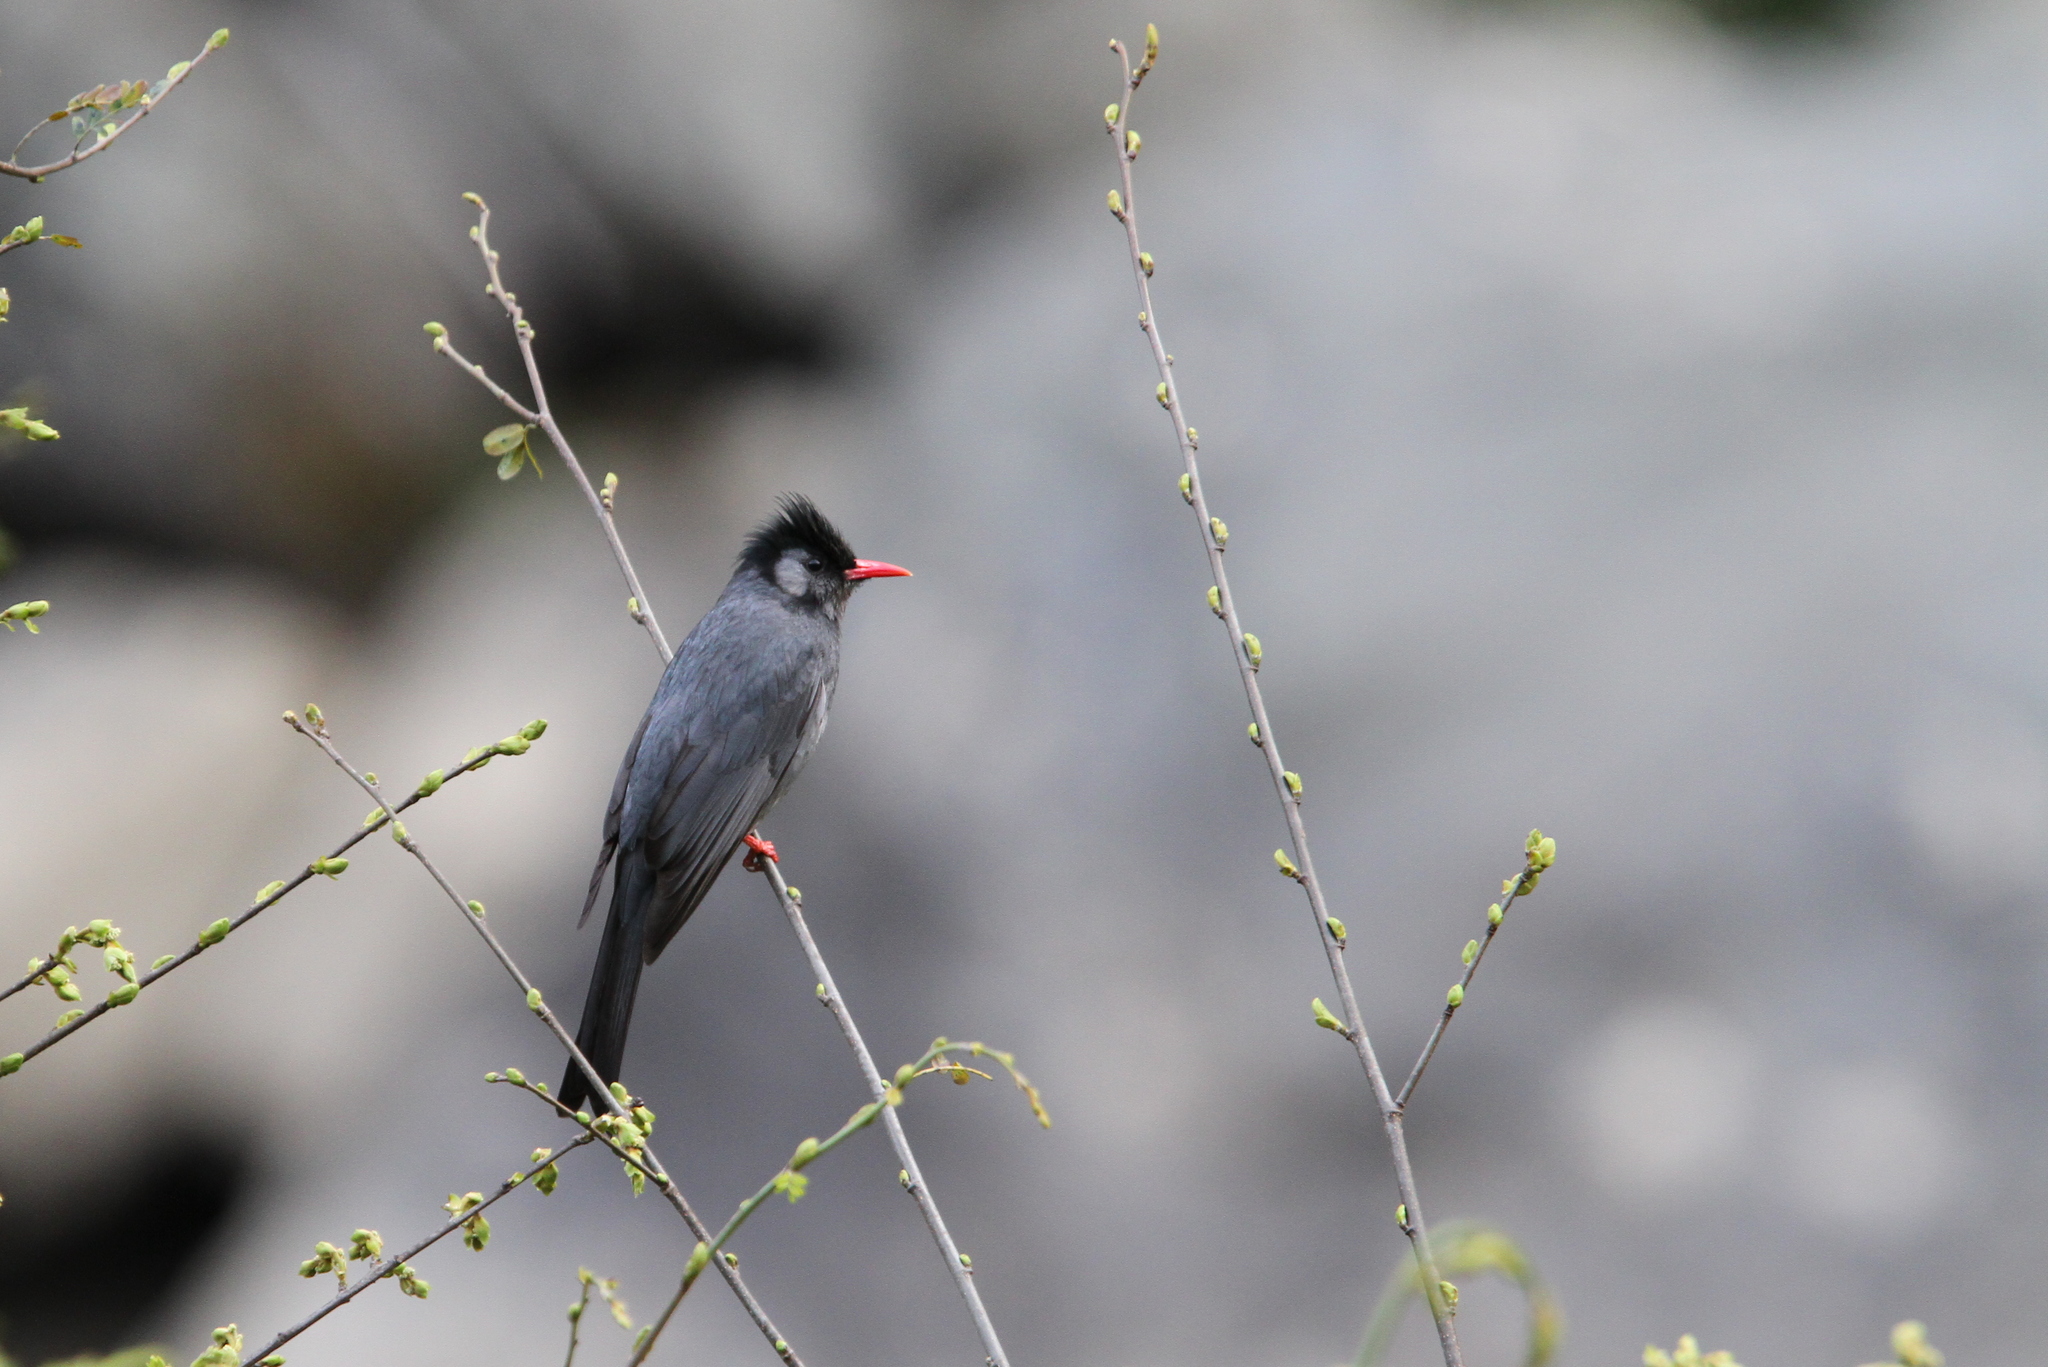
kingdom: Animalia
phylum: Chordata
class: Aves
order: Passeriformes
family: Pycnonotidae
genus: Hypsipetes
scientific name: Hypsipetes leucocephalus
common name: Black bulbul
